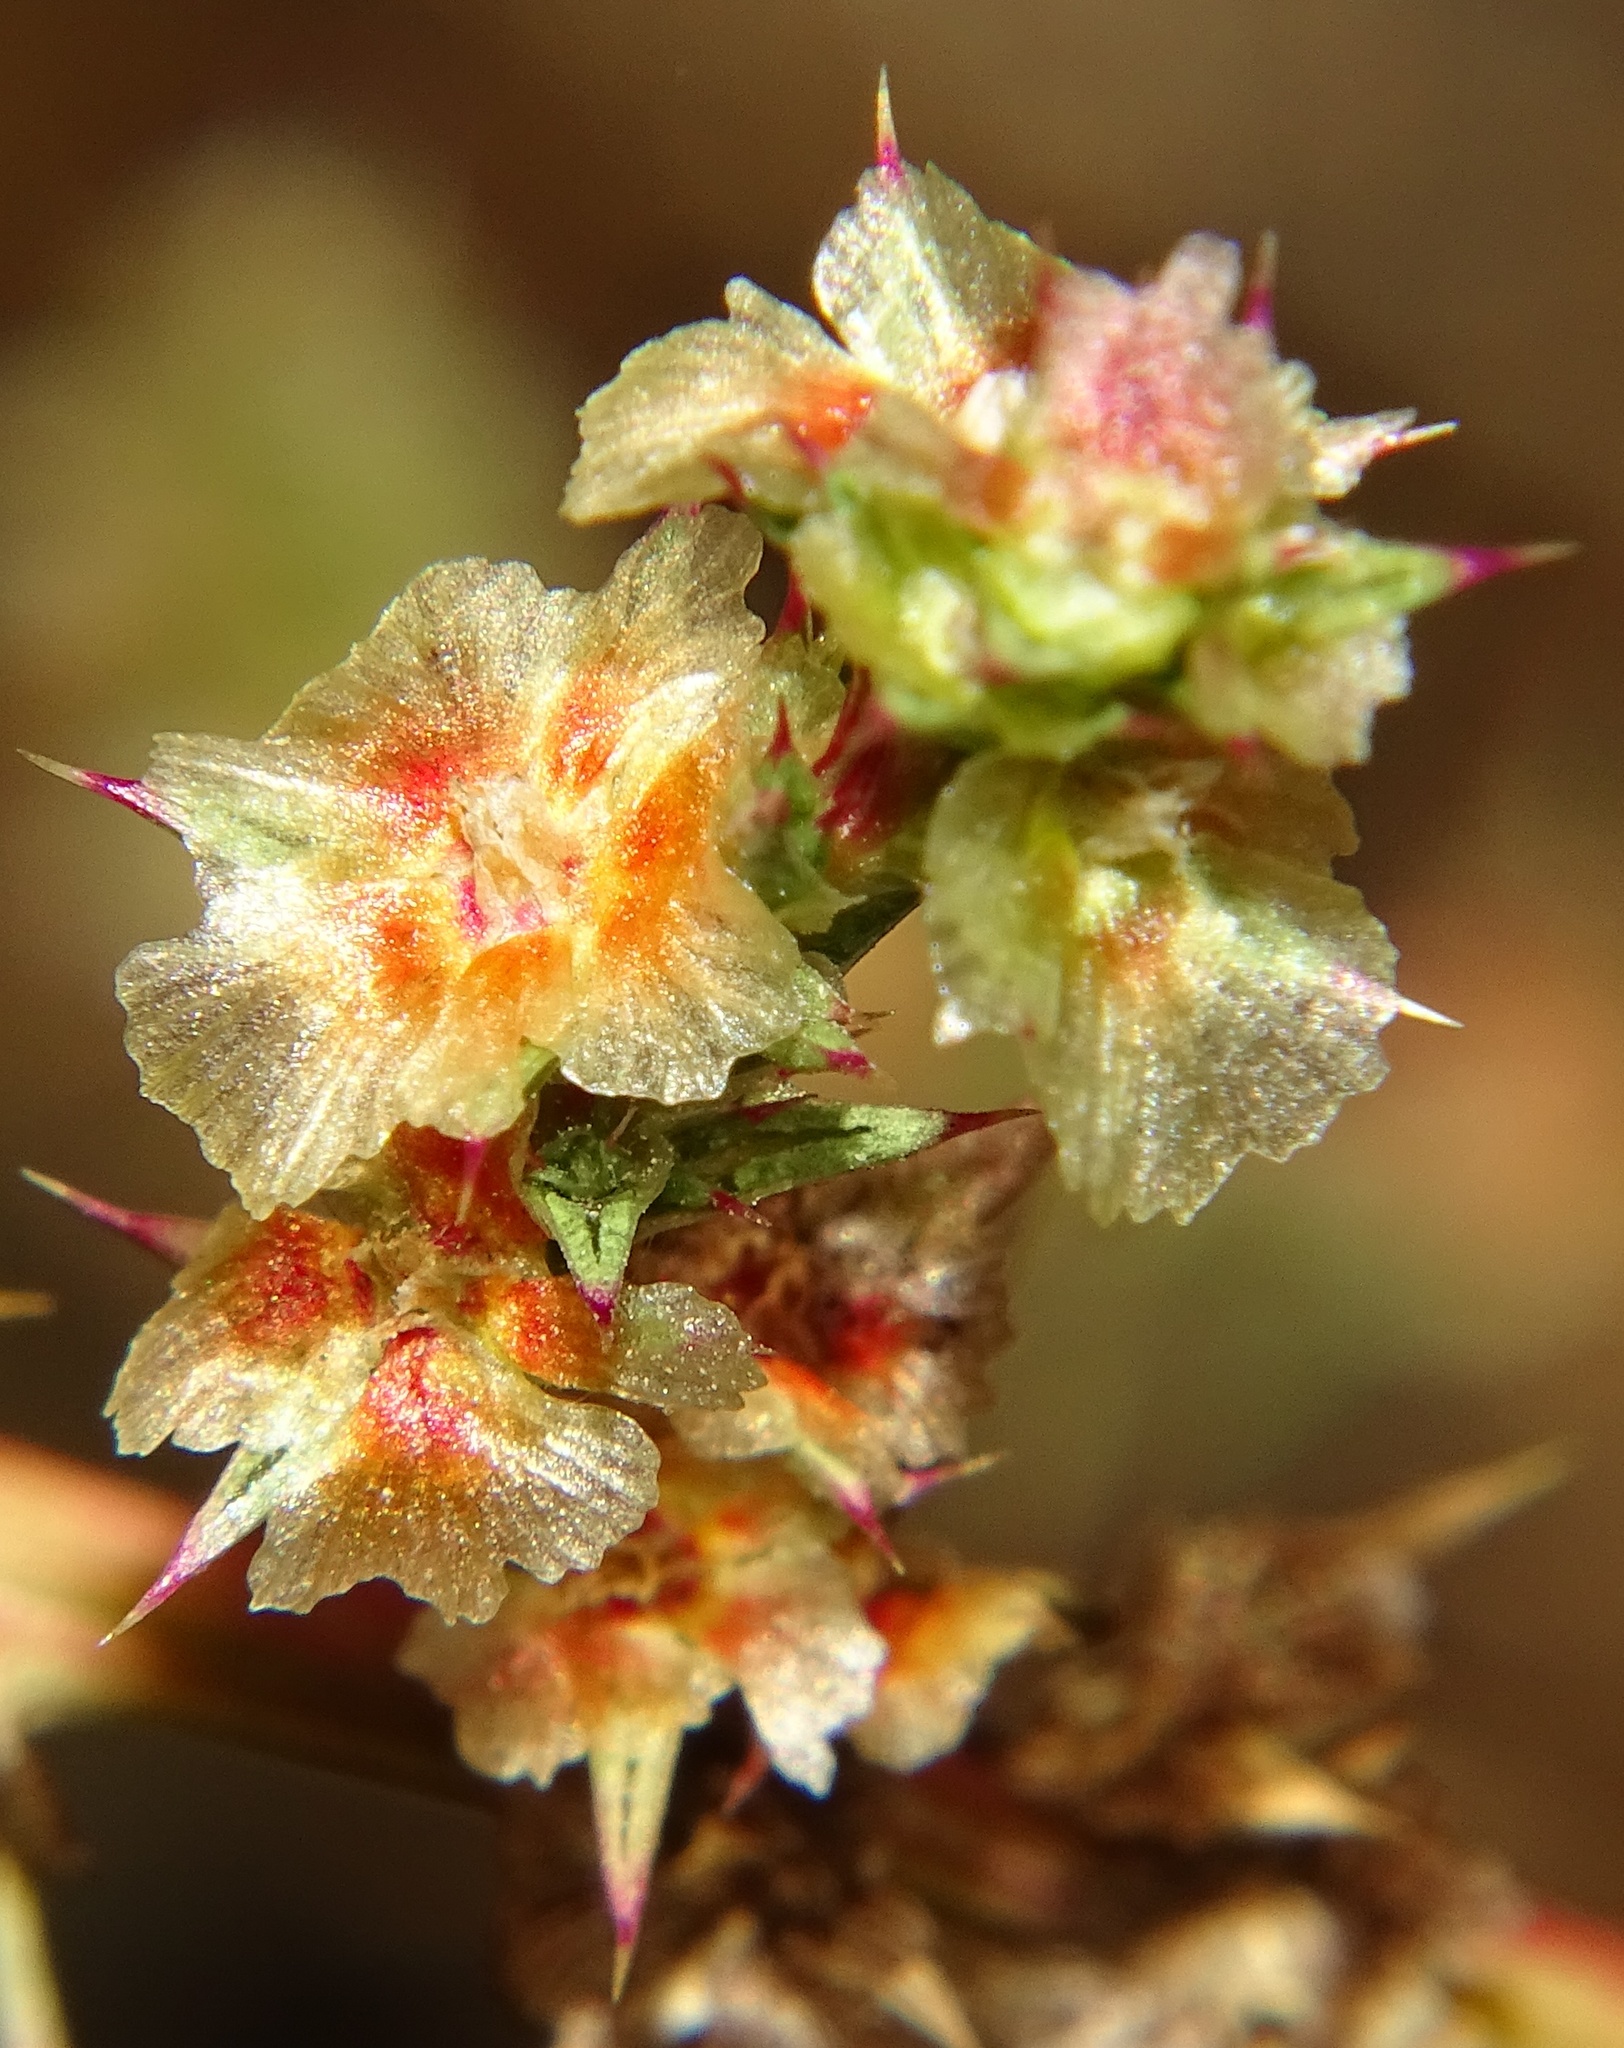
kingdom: Plantae
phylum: Tracheophyta
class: Magnoliopsida
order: Caryophyllales
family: Amaranthaceae
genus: Salsola
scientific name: Salsola tragus
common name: Prickly russian thistle
